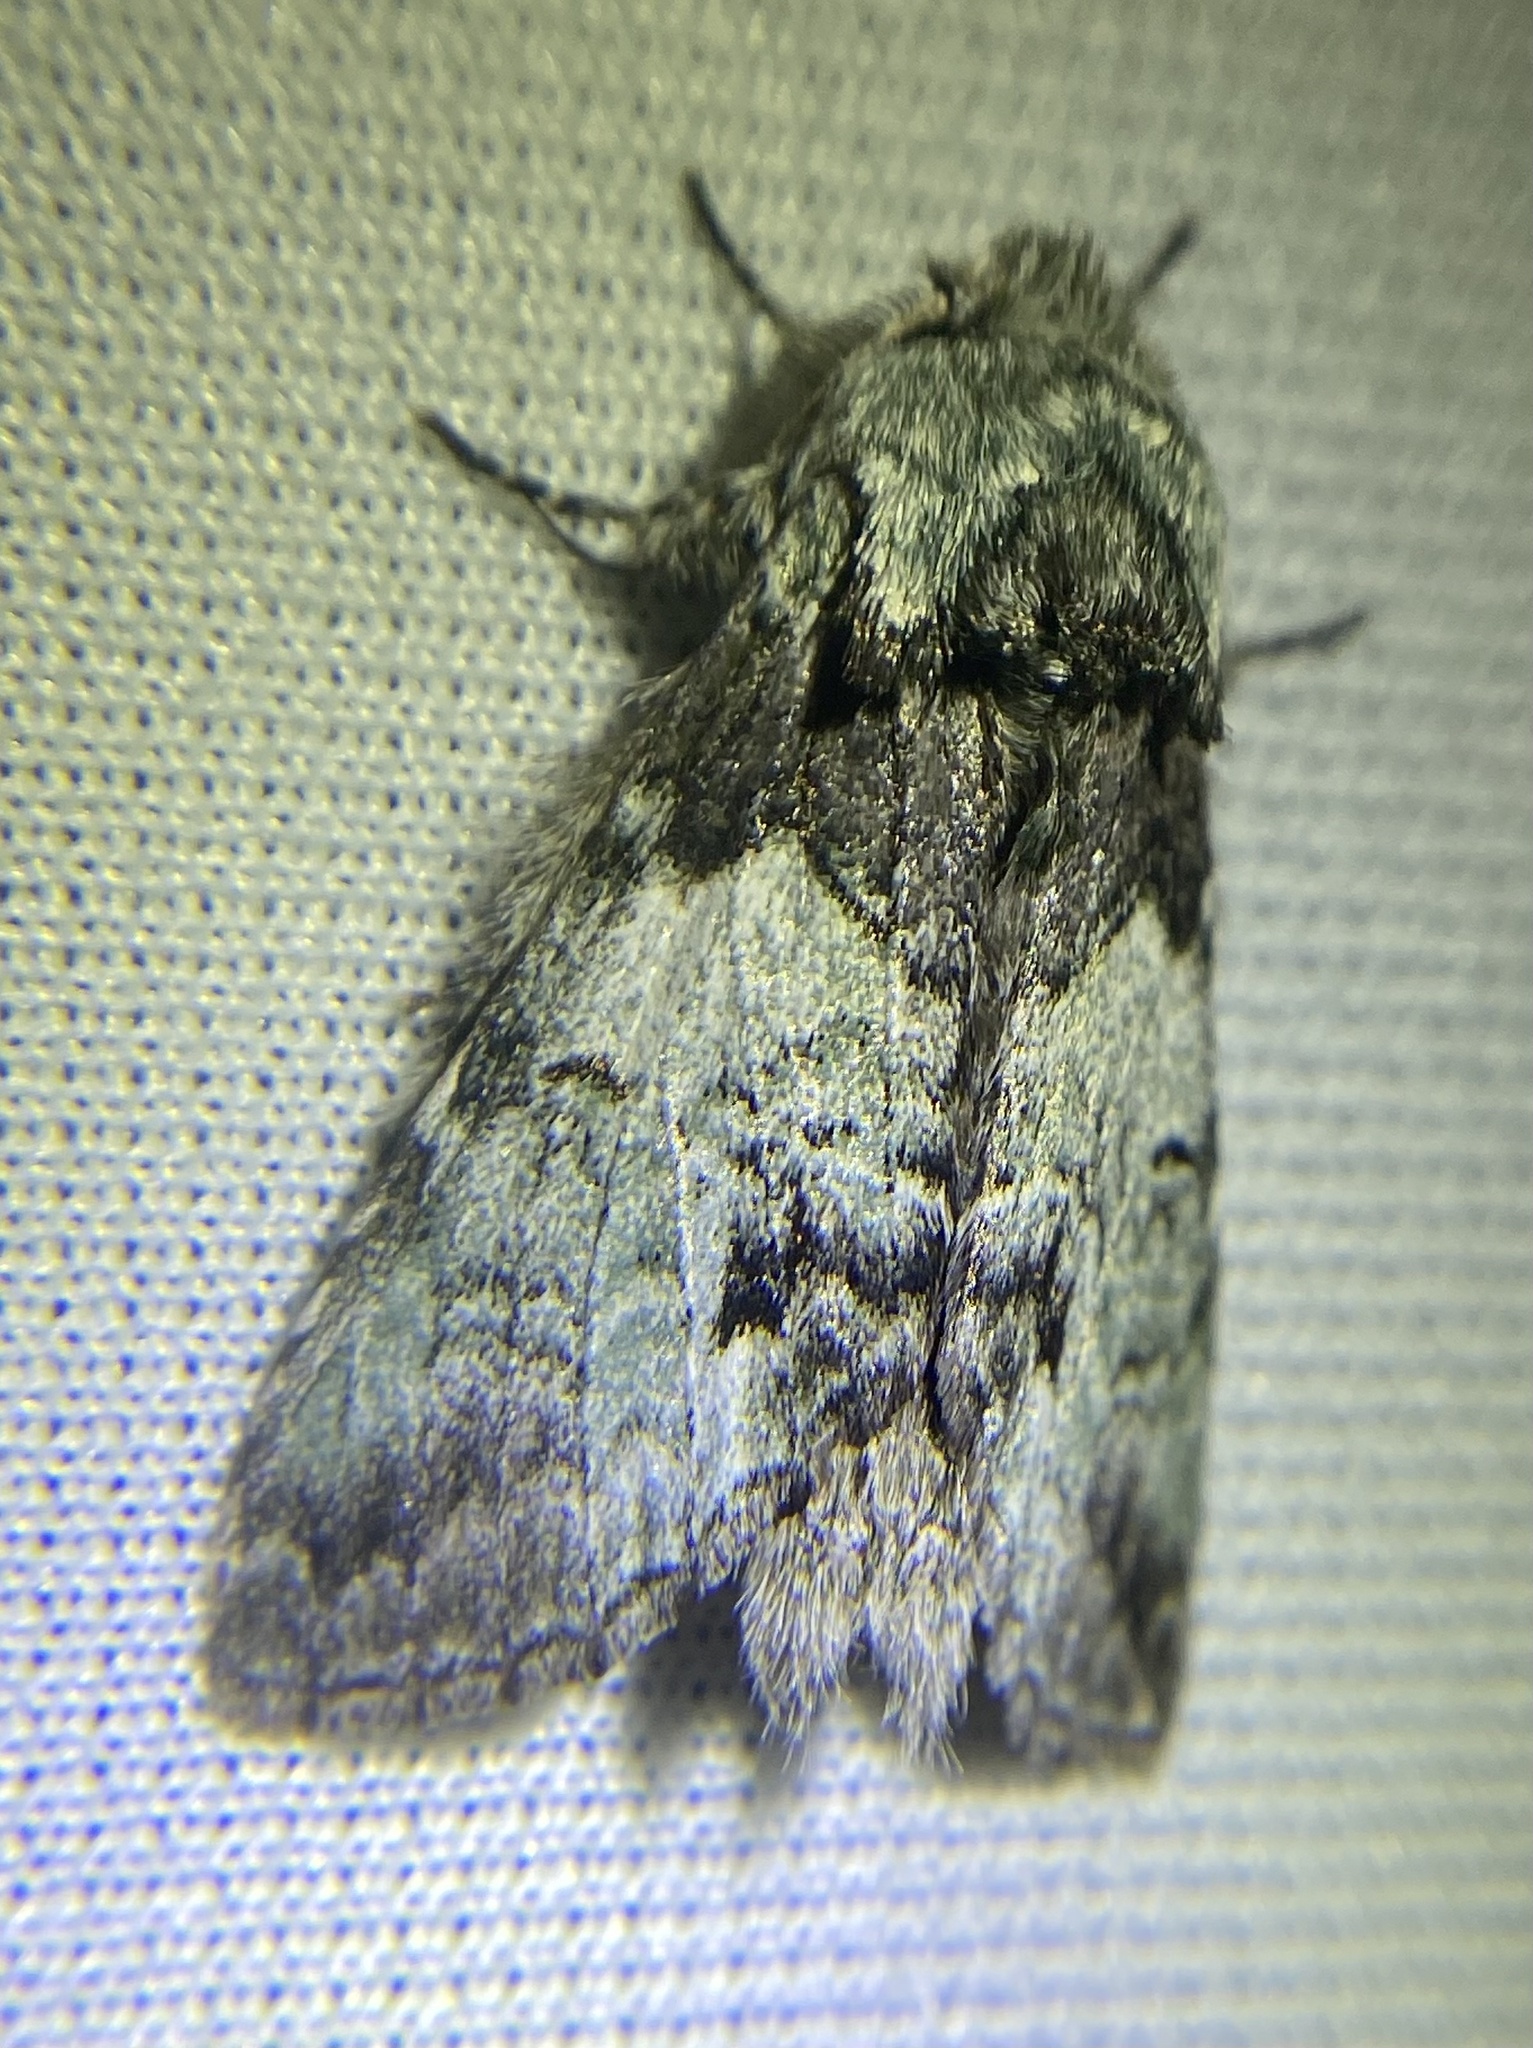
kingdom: Animalia
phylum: Arthropoda
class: Insecta
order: Lepidoptera
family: Notodontidae
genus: Macrurocampa
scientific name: Macrurocampa marthesia
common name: Mottled prominent
